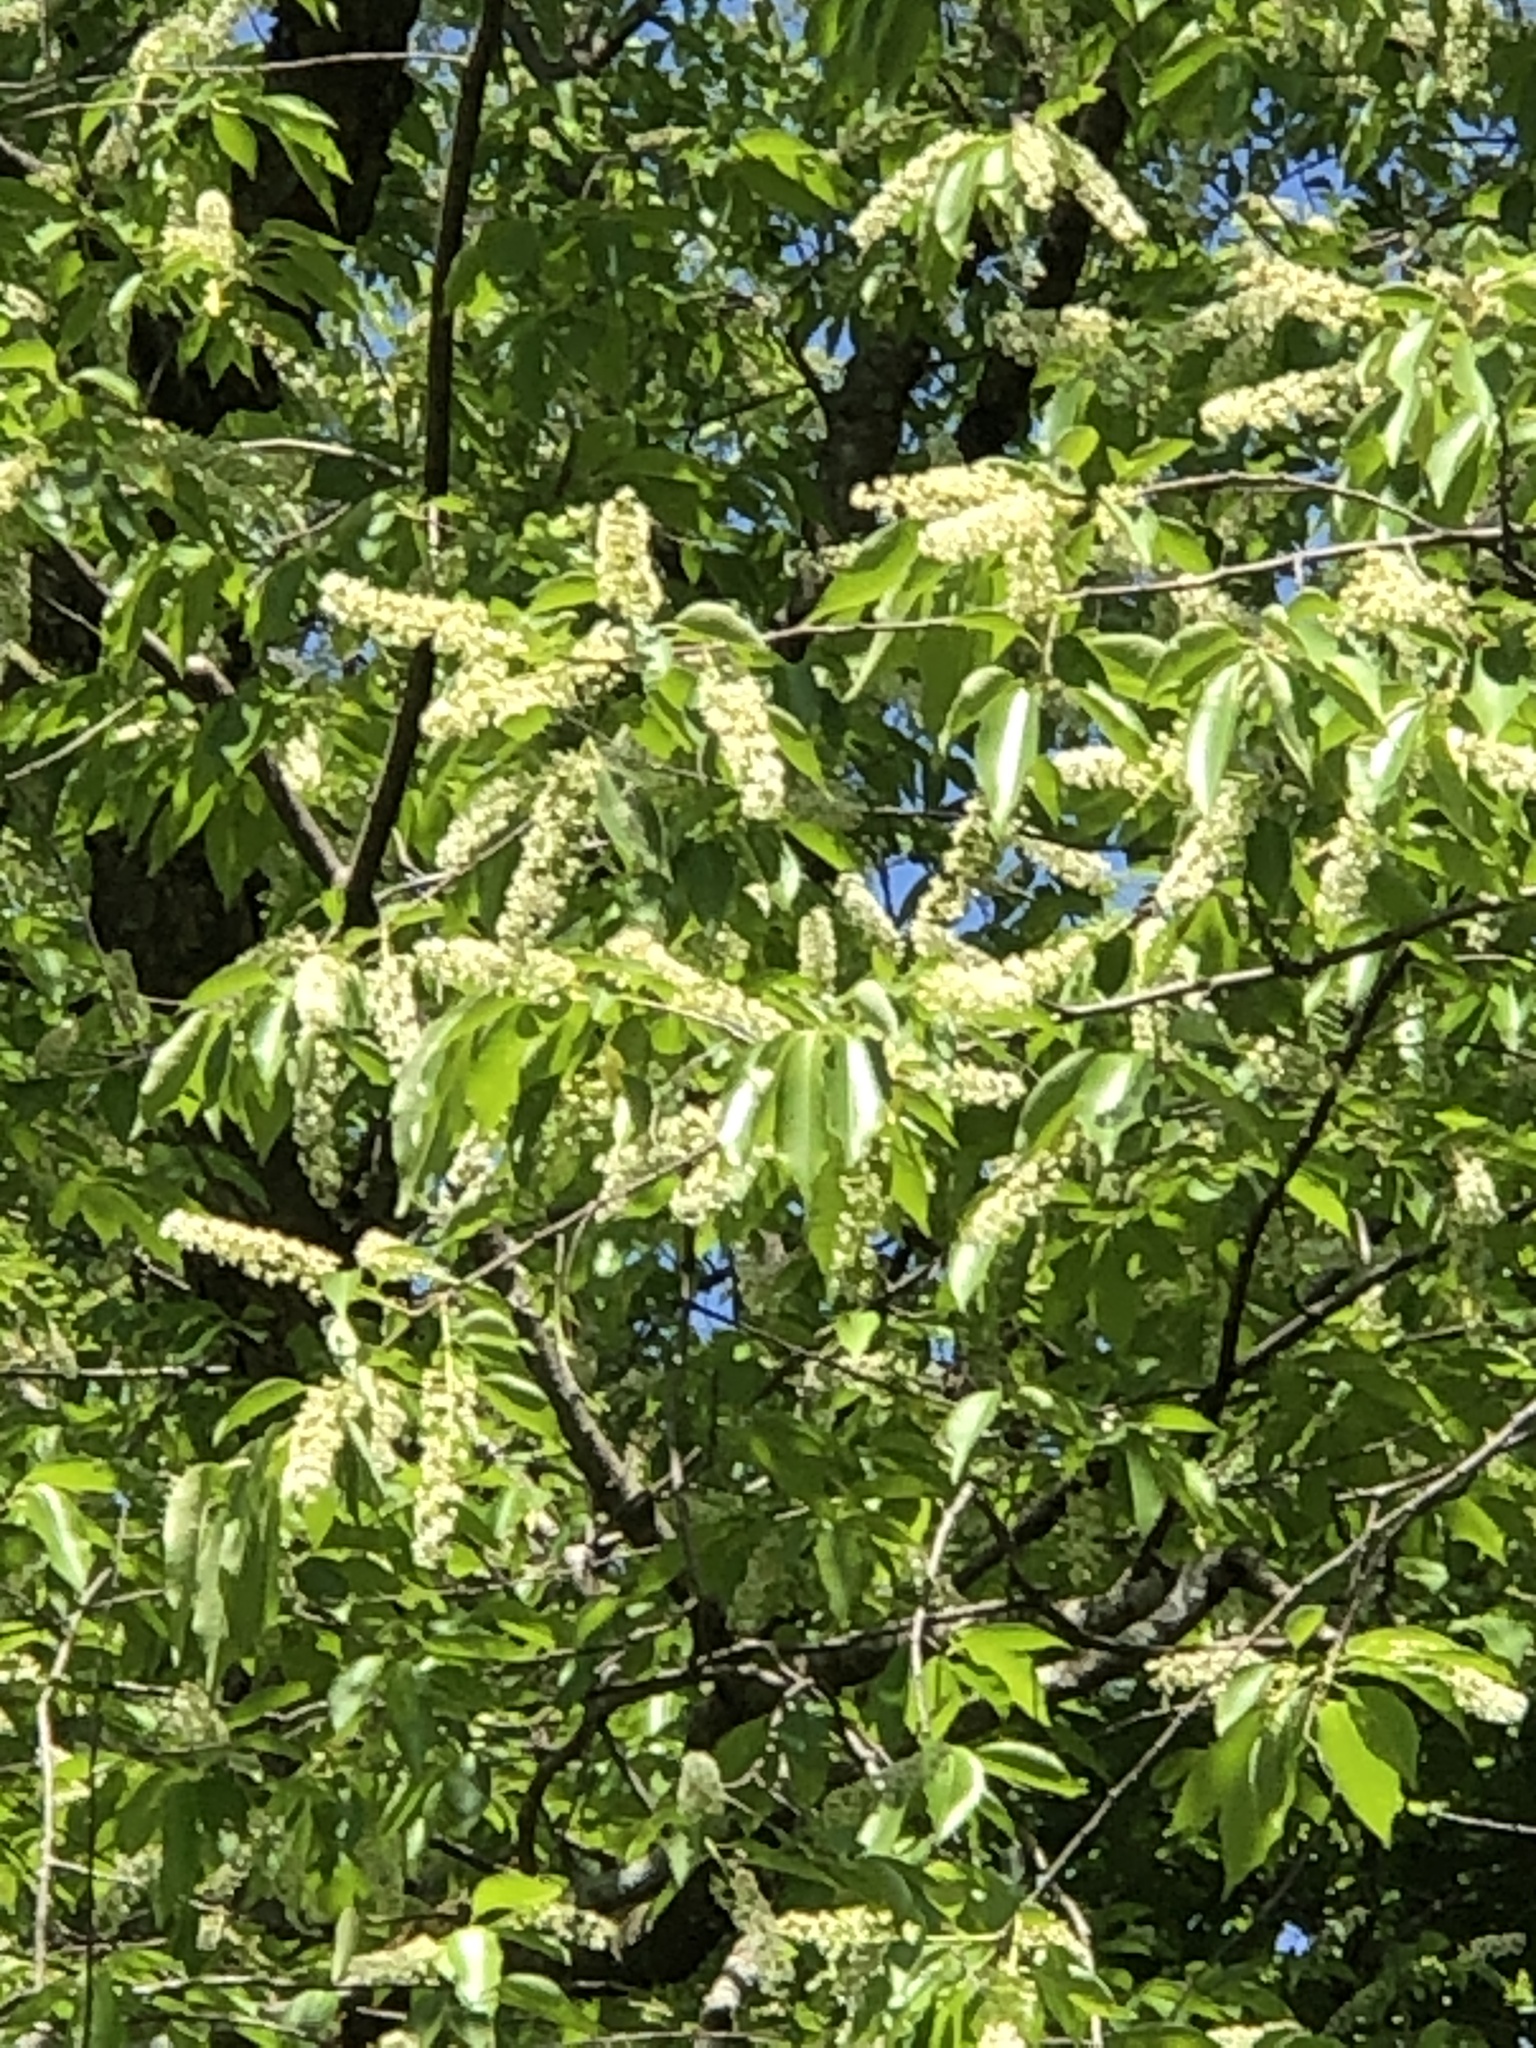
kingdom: Plantae
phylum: Tracheophyta
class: Magnoliopsida
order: Rosales
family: Rosaceae
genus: Prunus
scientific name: Prunus serotina
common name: Black cherry
